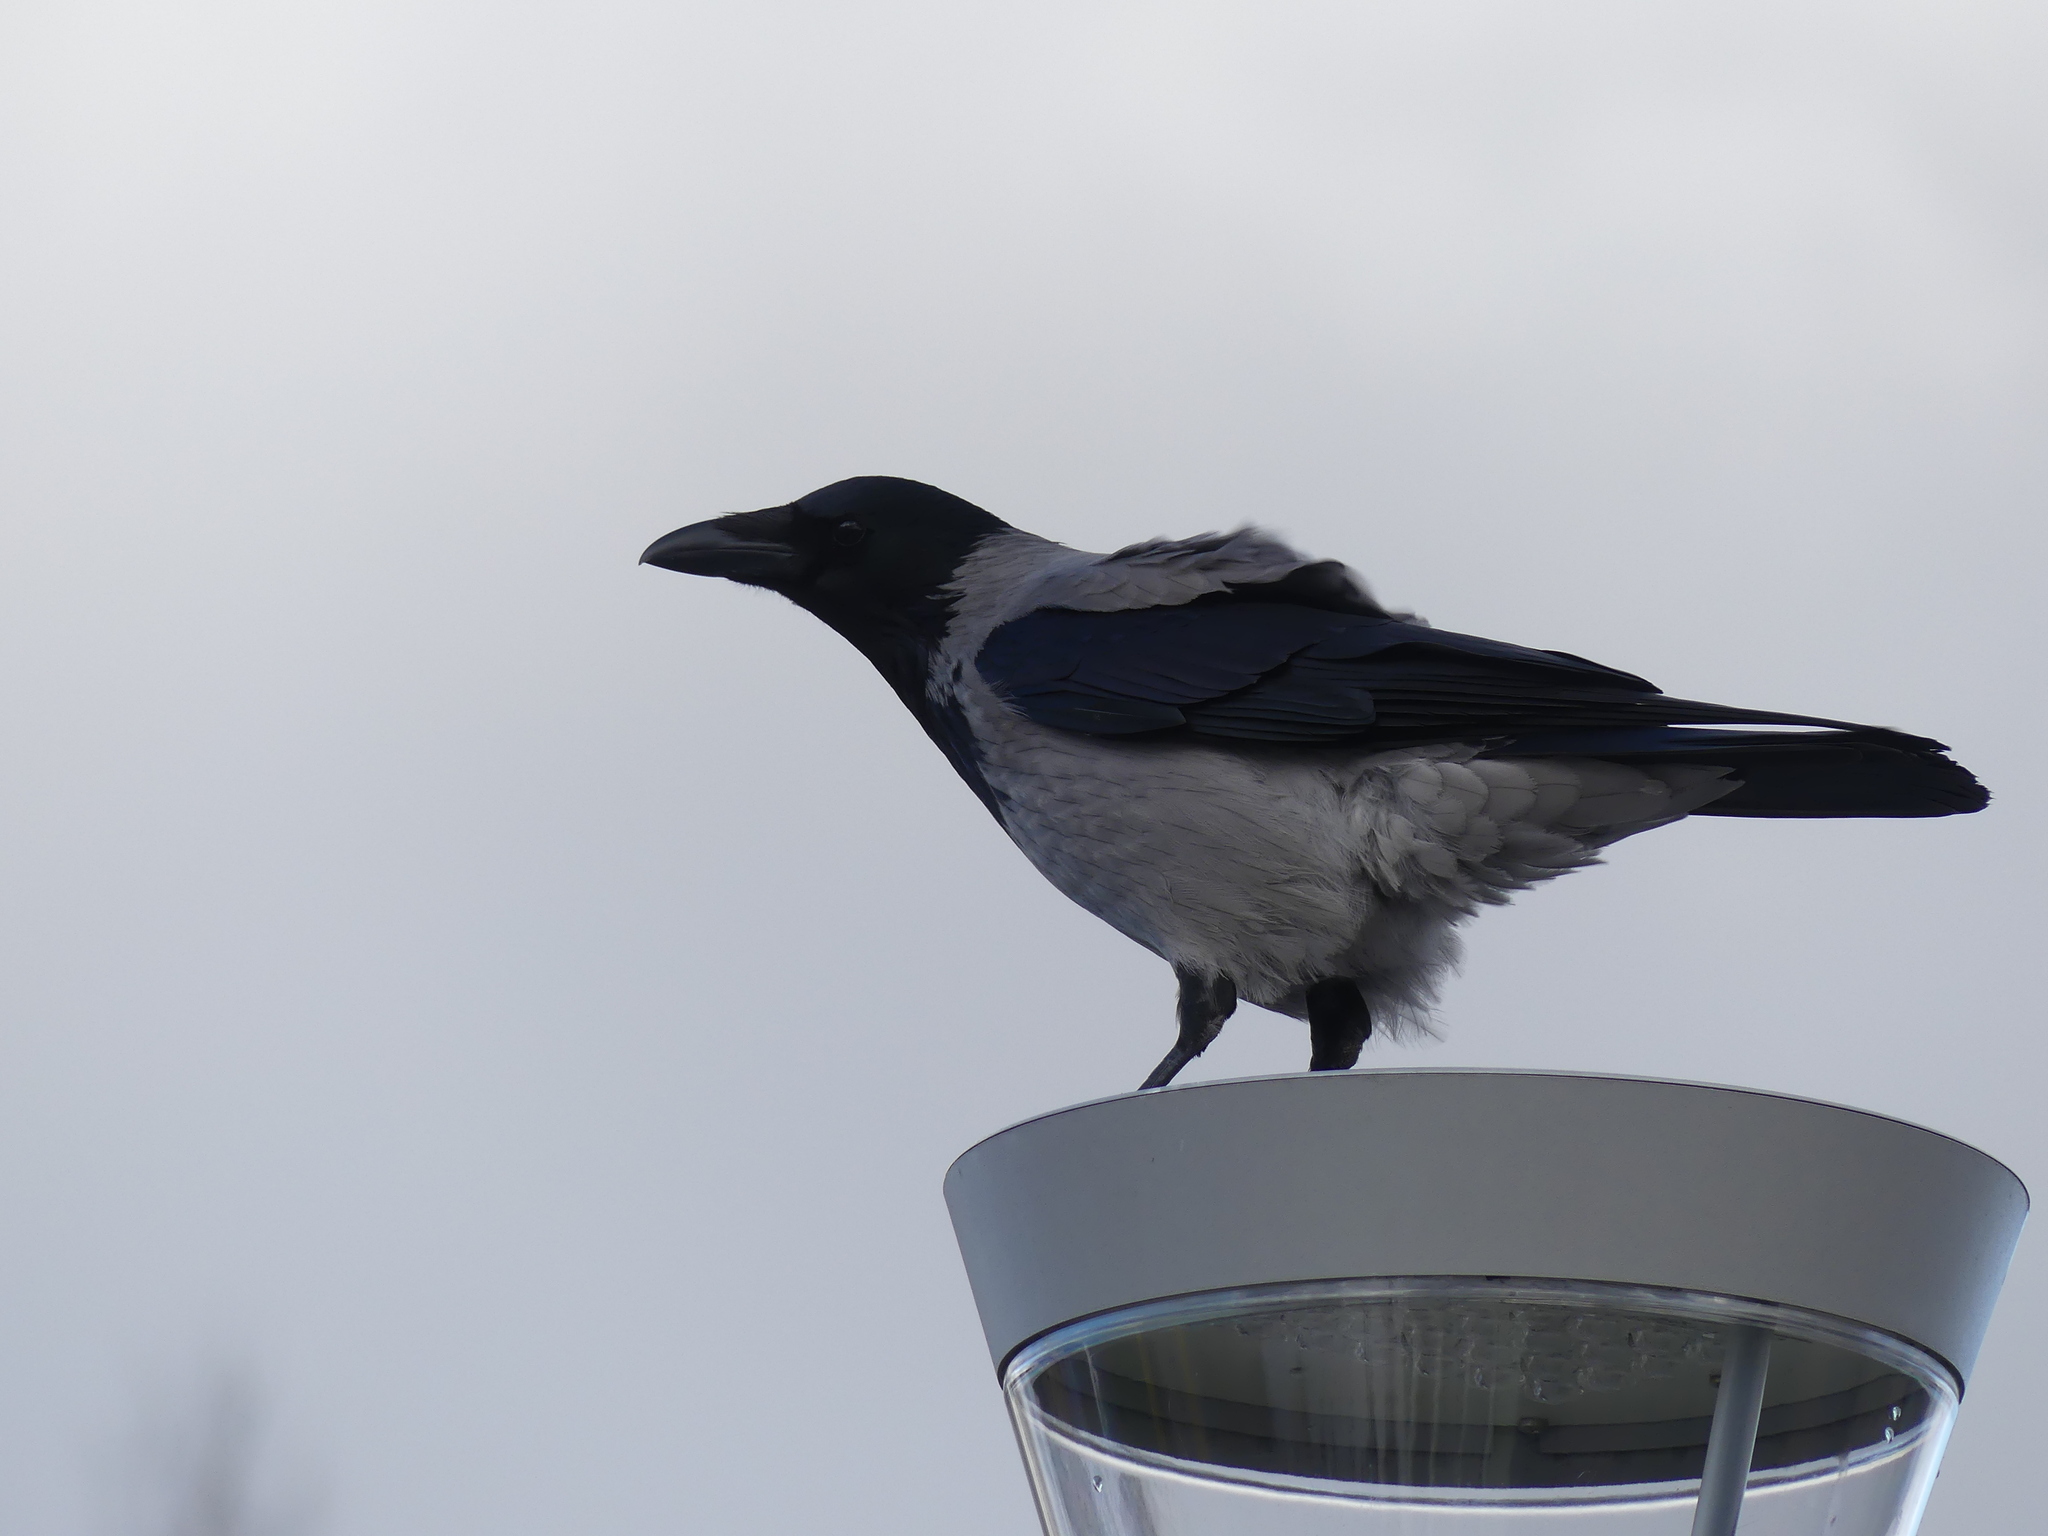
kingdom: Animalia
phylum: Chordata
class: Aves
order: Passeriformes
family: Corvidae
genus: Corvus
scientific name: Corvus cornix
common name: Hooded crow
